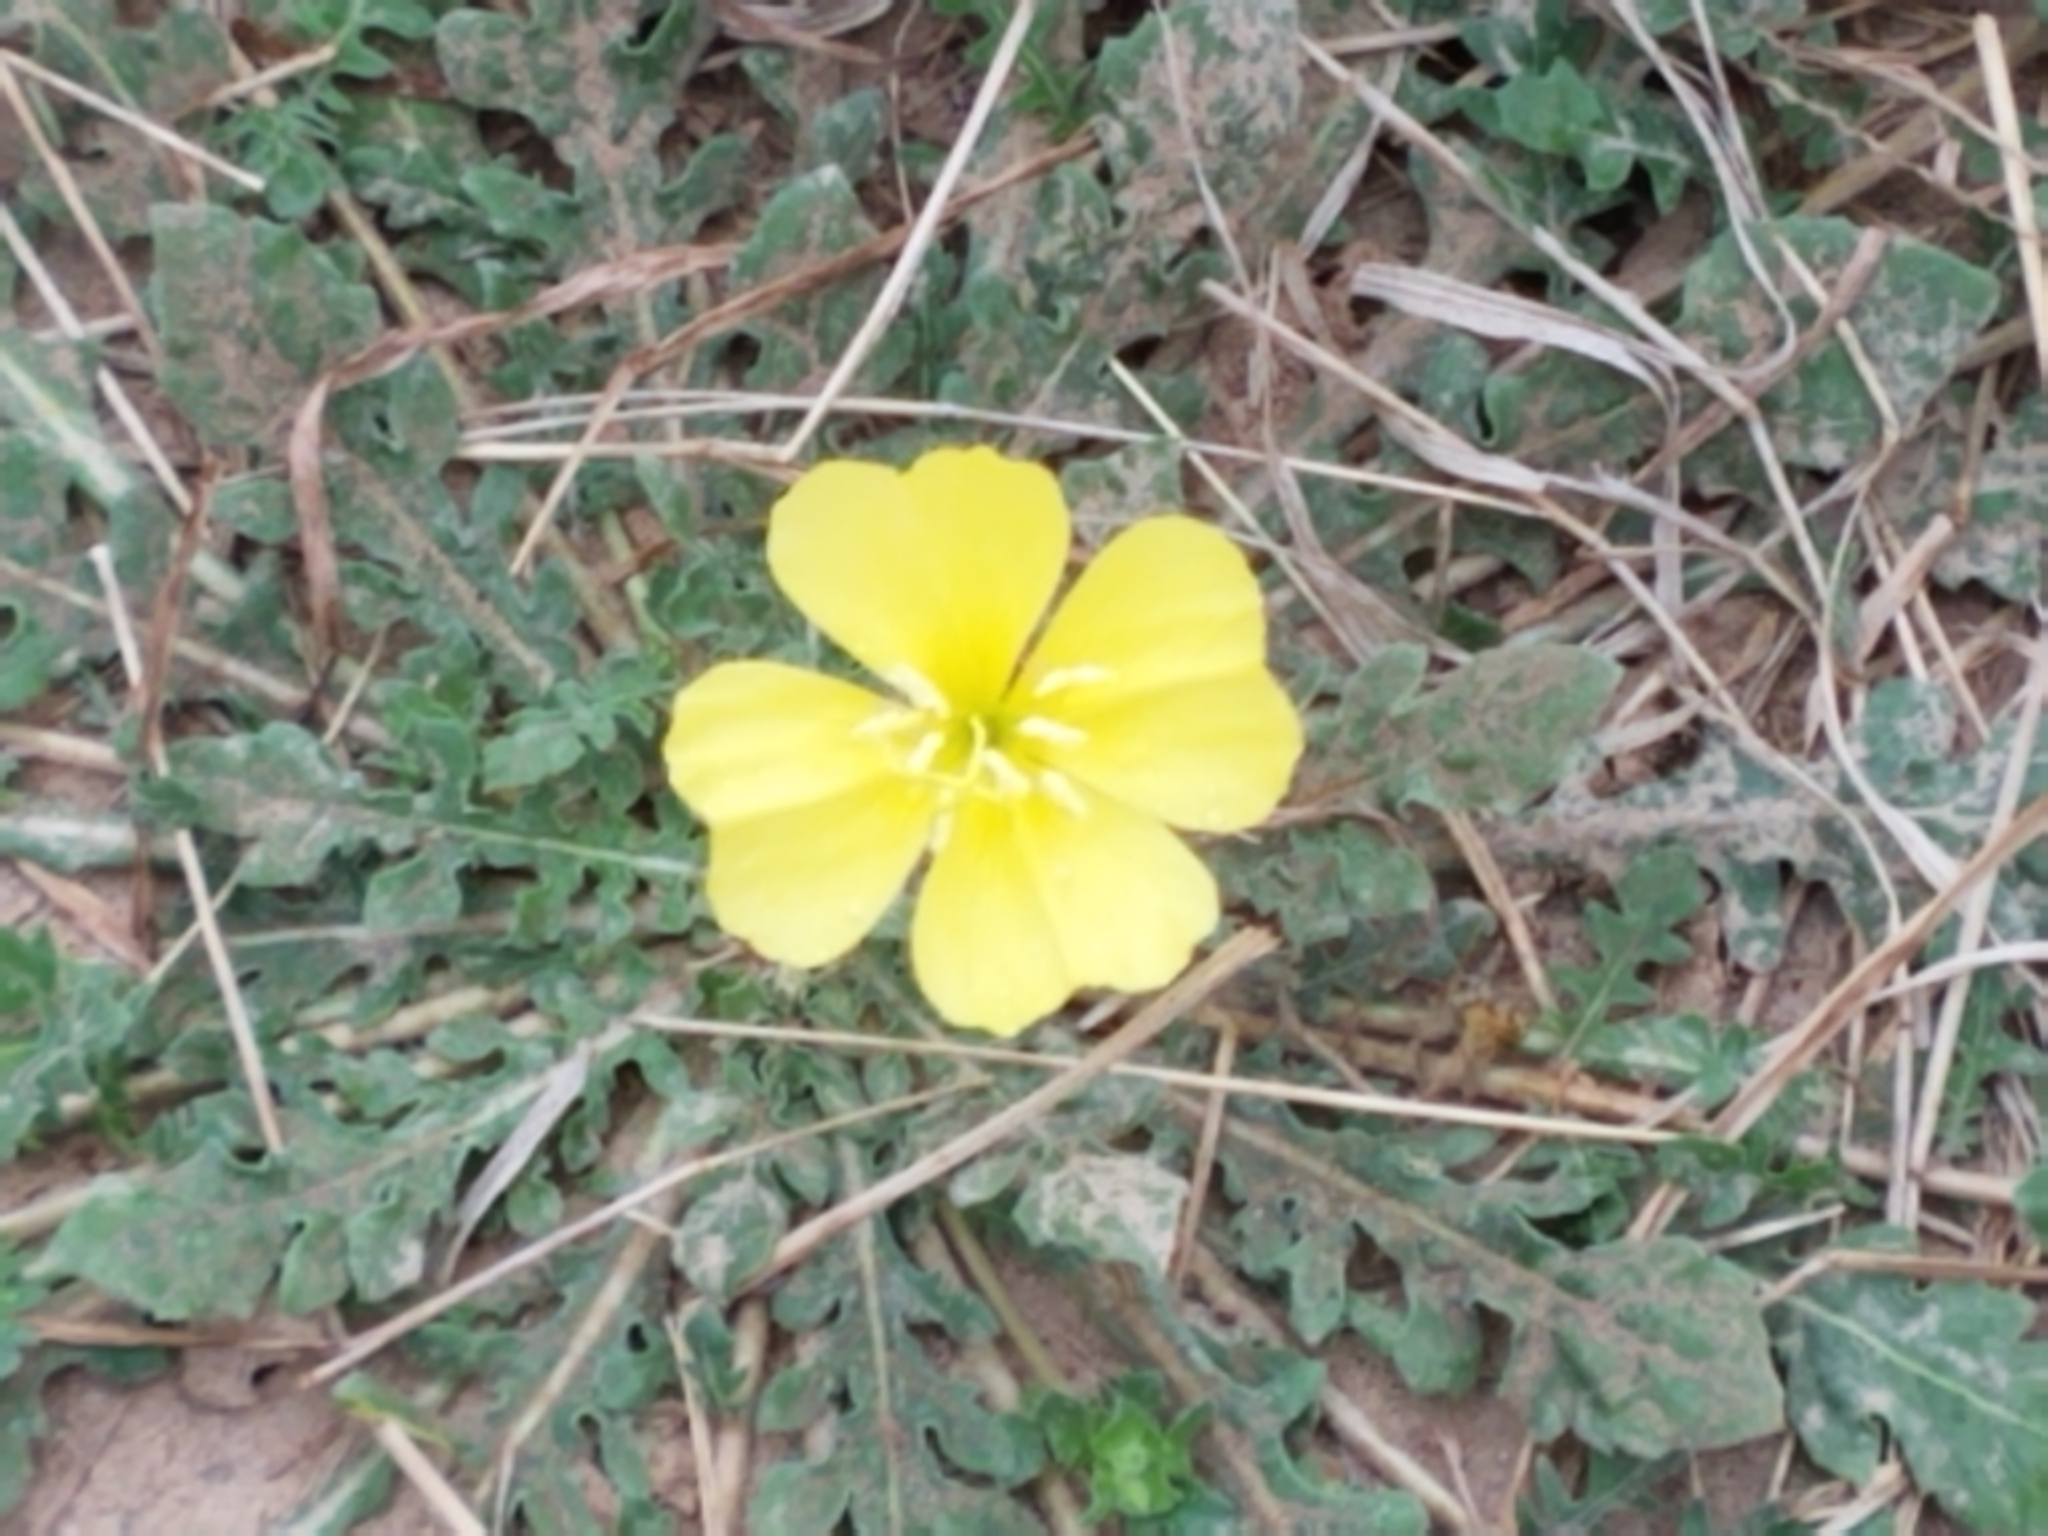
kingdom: Plantae
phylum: Tracheophyta
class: Magnoliopsida
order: Myrtales
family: Onagraceae
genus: Oenothera
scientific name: Oenothera triloba
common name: Sessile evening-primrose
